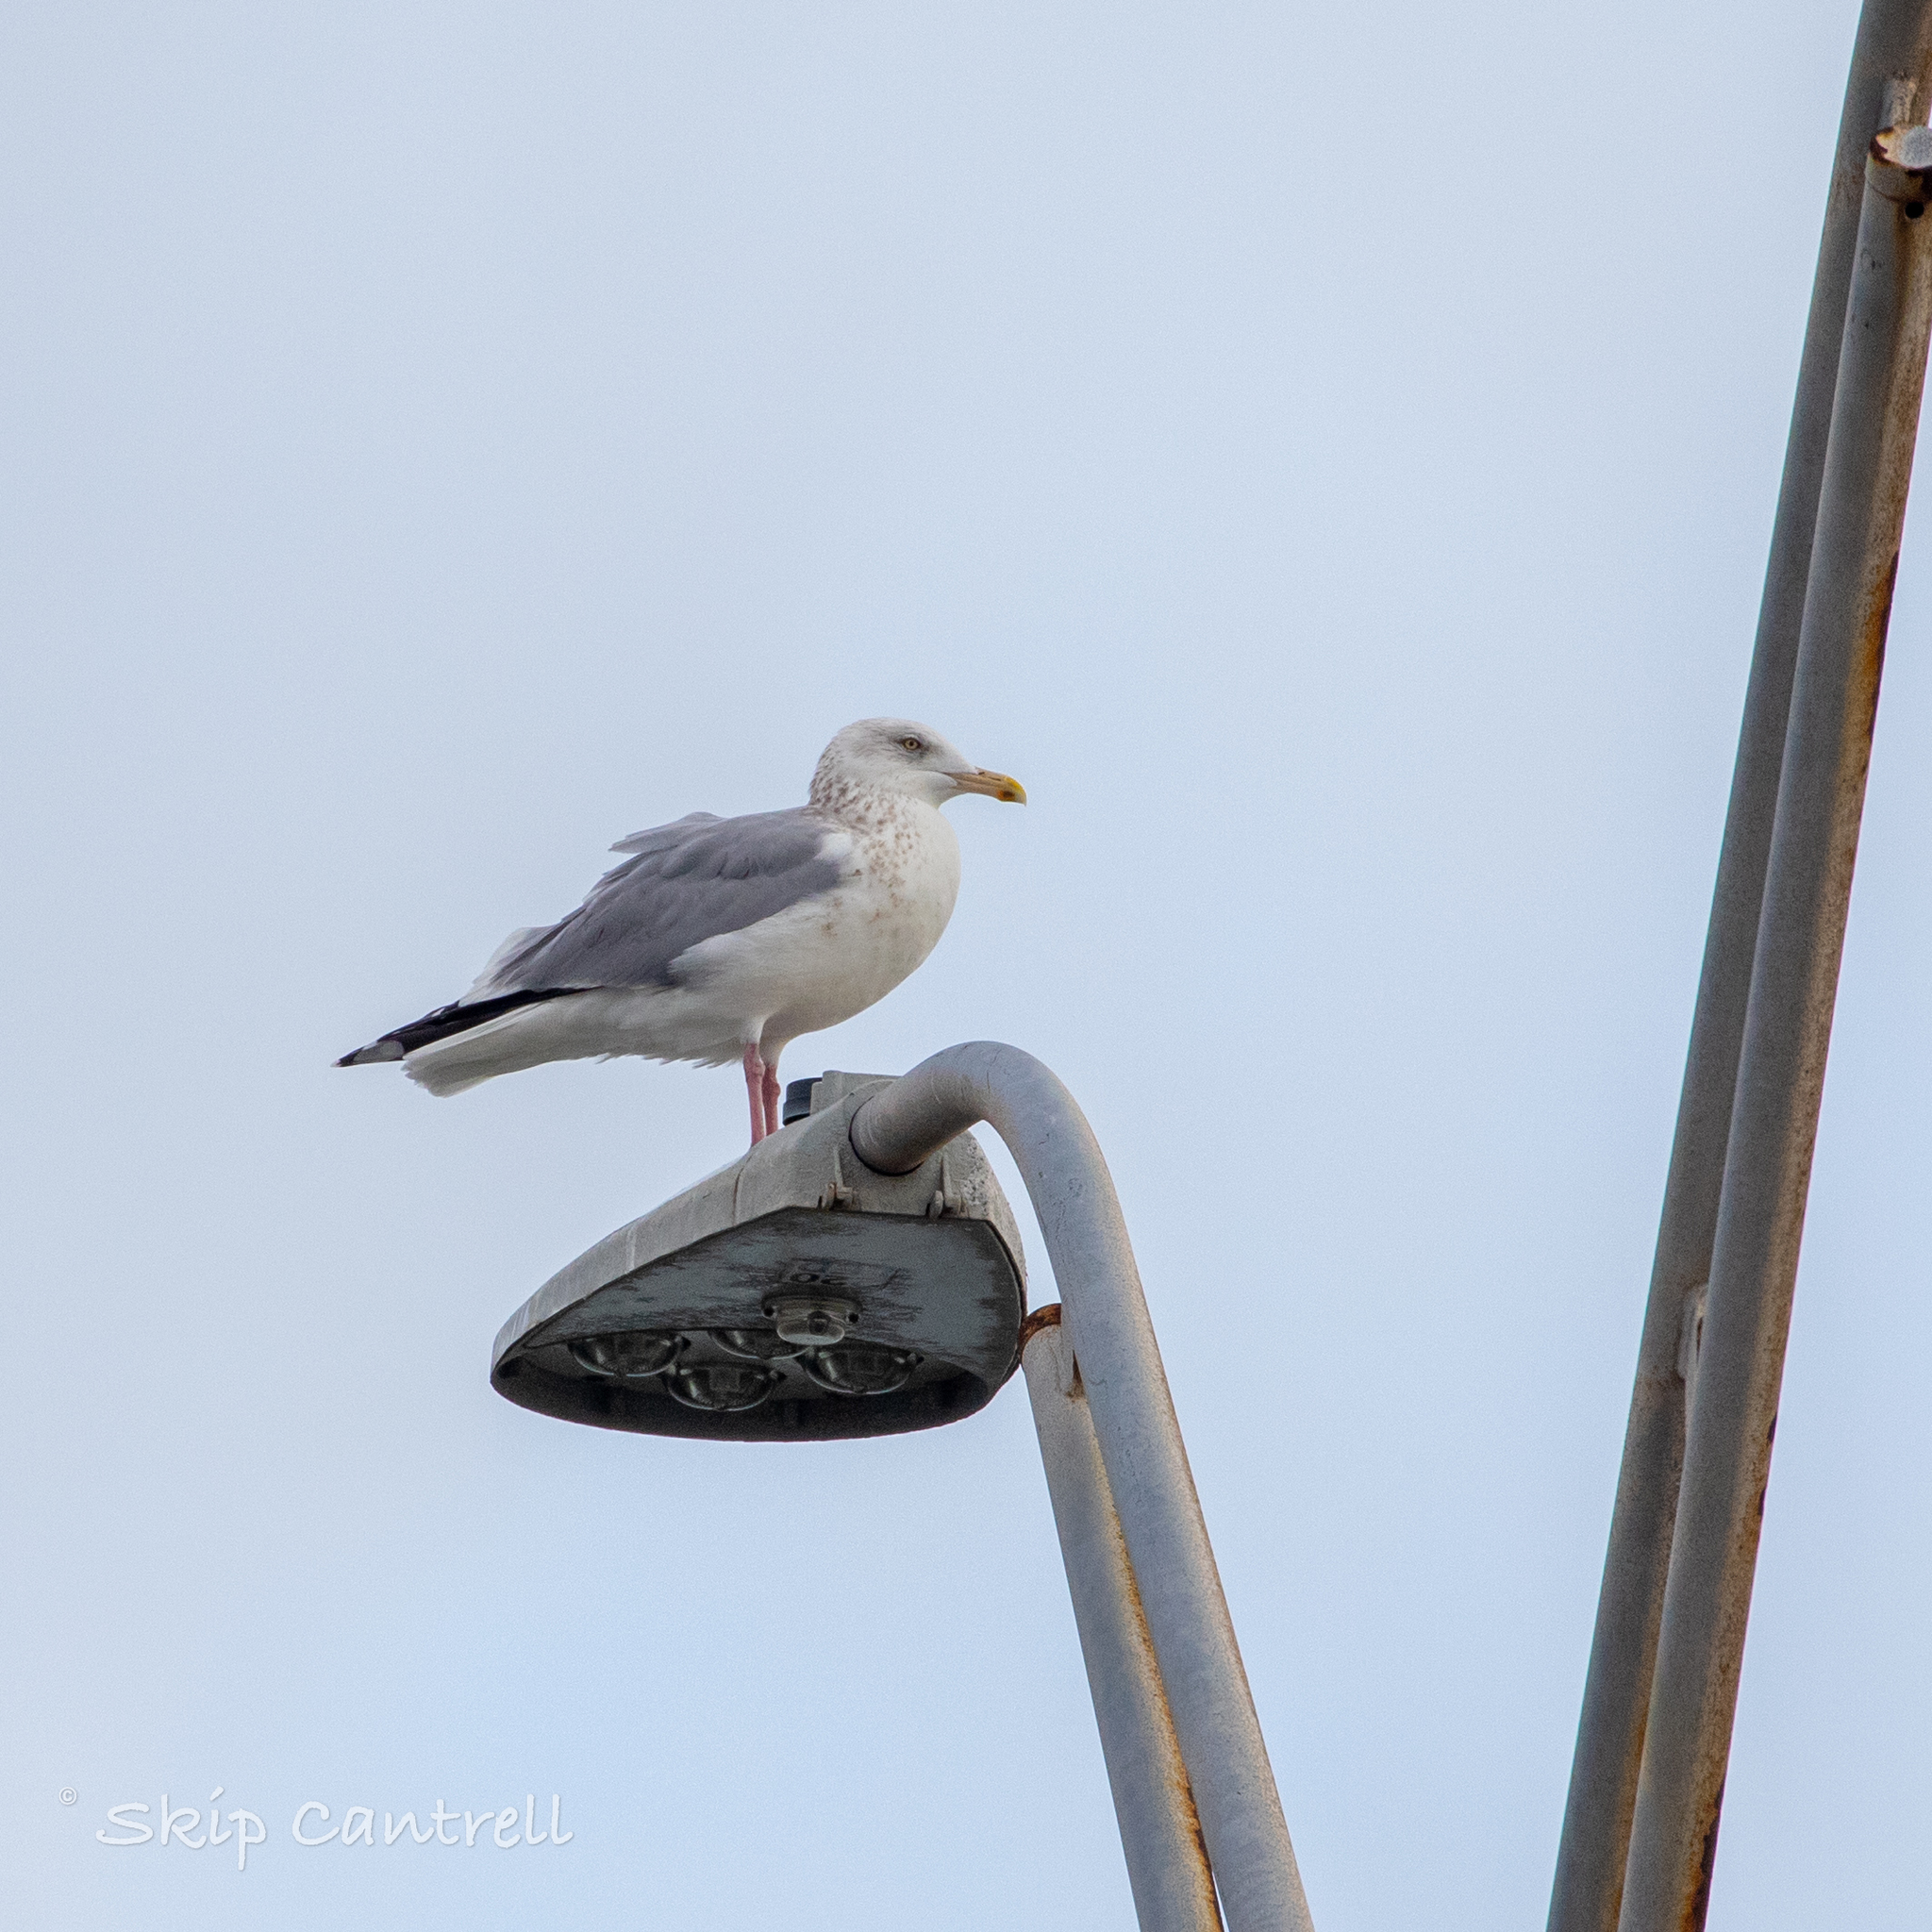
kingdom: Animalia
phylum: Chordata
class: Aves
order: Charadriiformes
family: Laridae
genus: Larus
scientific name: Larus argentatus
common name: Herring gull
